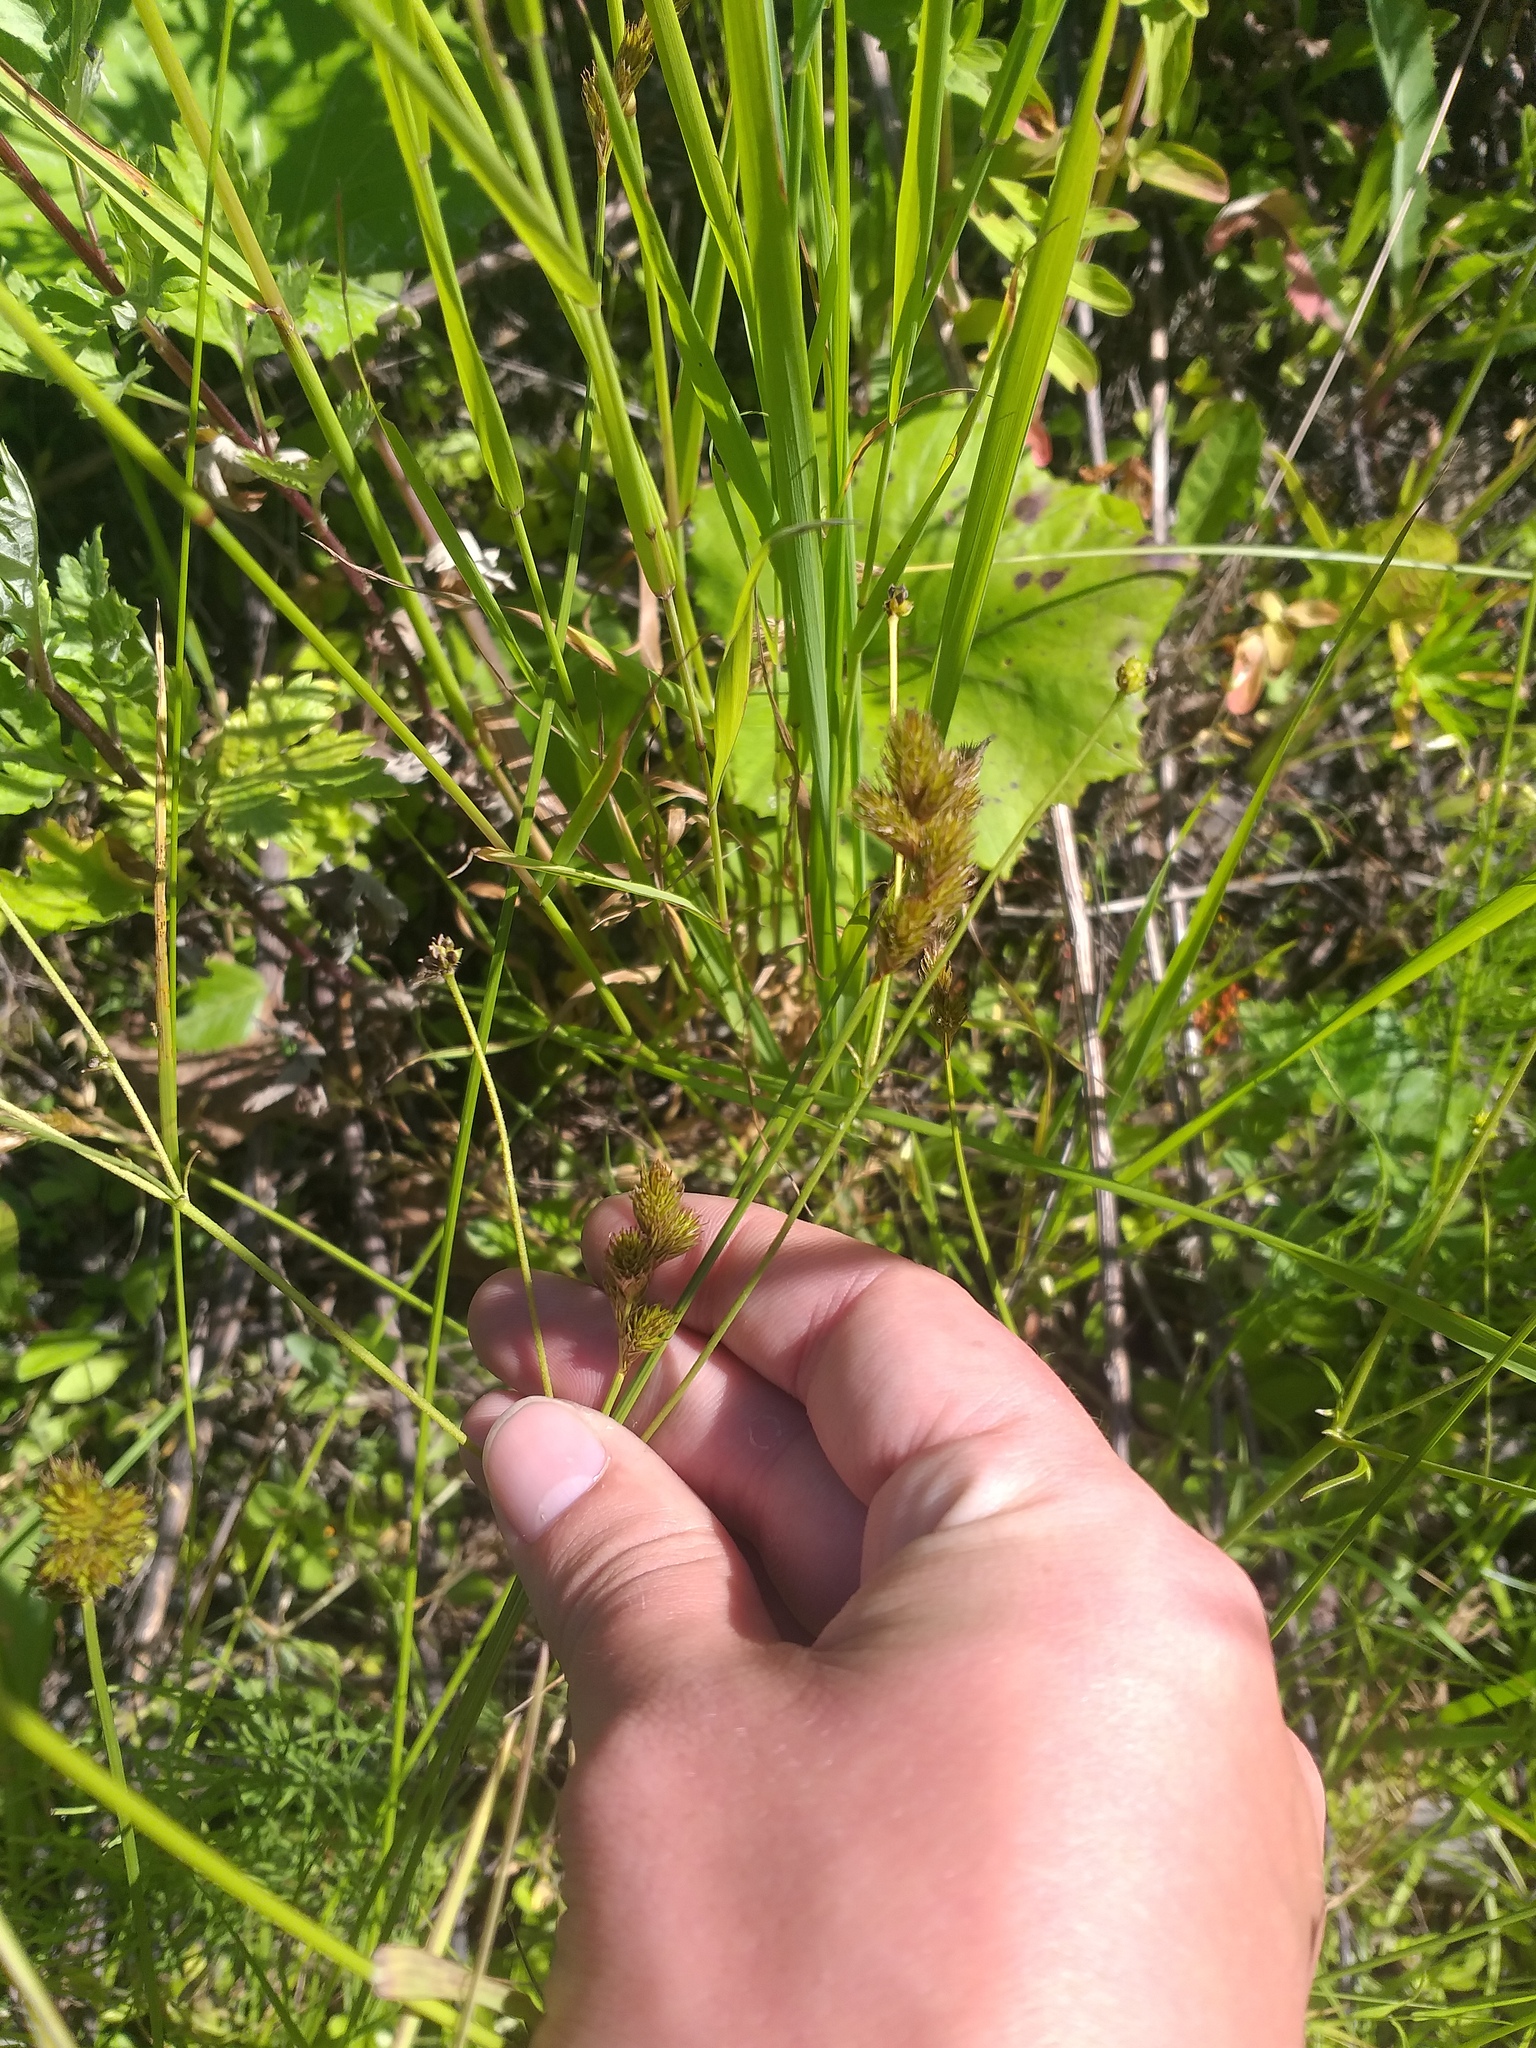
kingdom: Plantae
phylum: Tracheophyta
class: Liliopsida
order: Poales
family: Cyperaceae
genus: Carex
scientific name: Carex leporina
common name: Oval sedge
